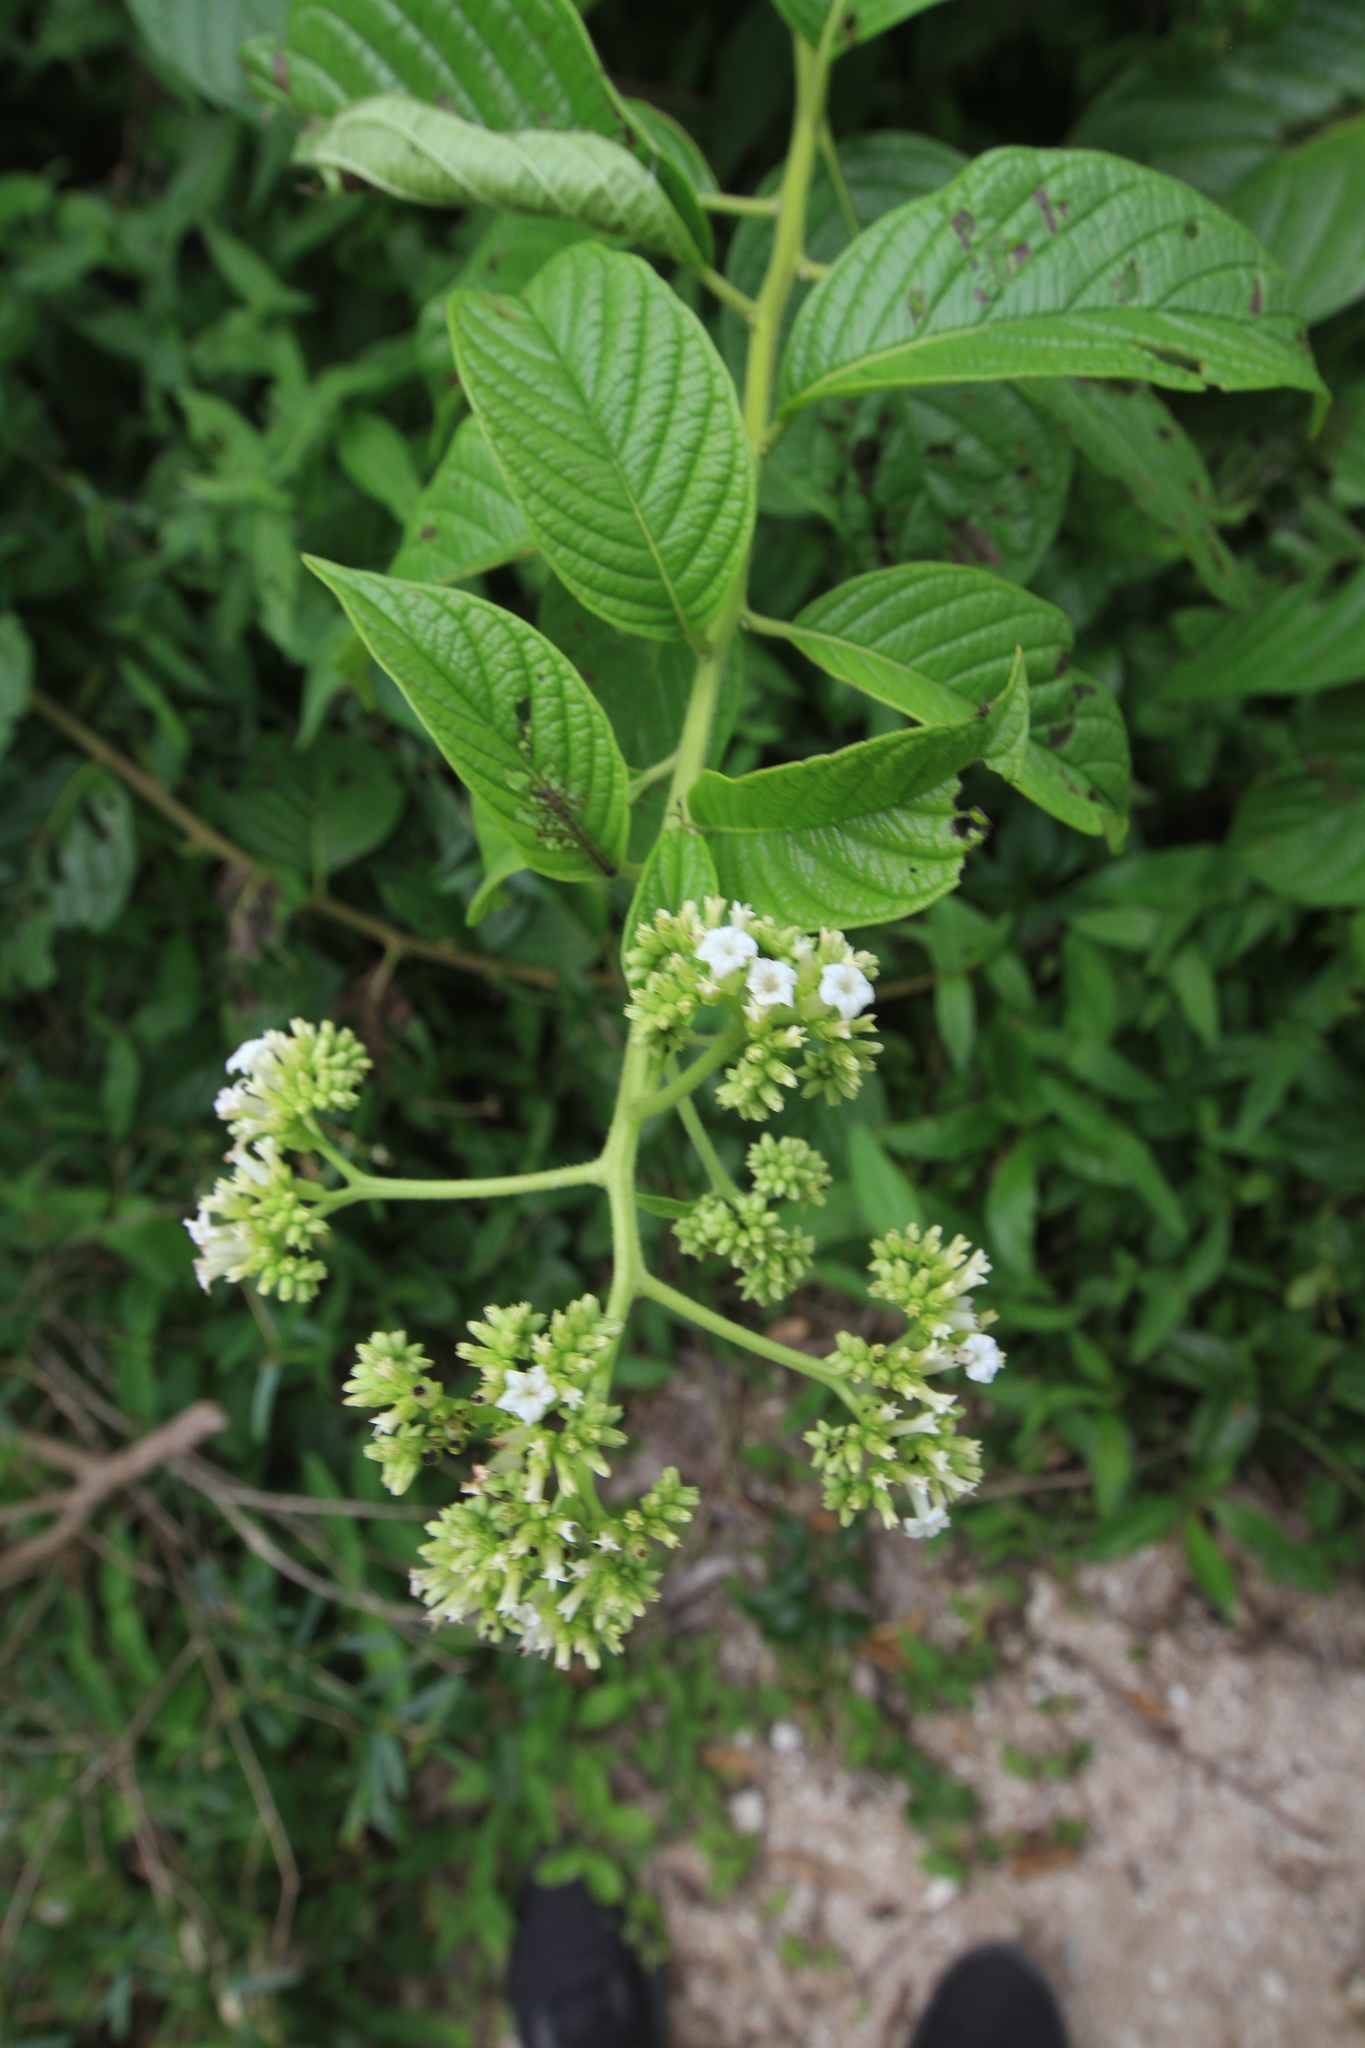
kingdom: Plantae
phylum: Tracheophyta
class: Magnoliopsida
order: Boraginales
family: Heliotropiaceae
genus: Heliotropium
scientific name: Heliotropium verdcourtii
